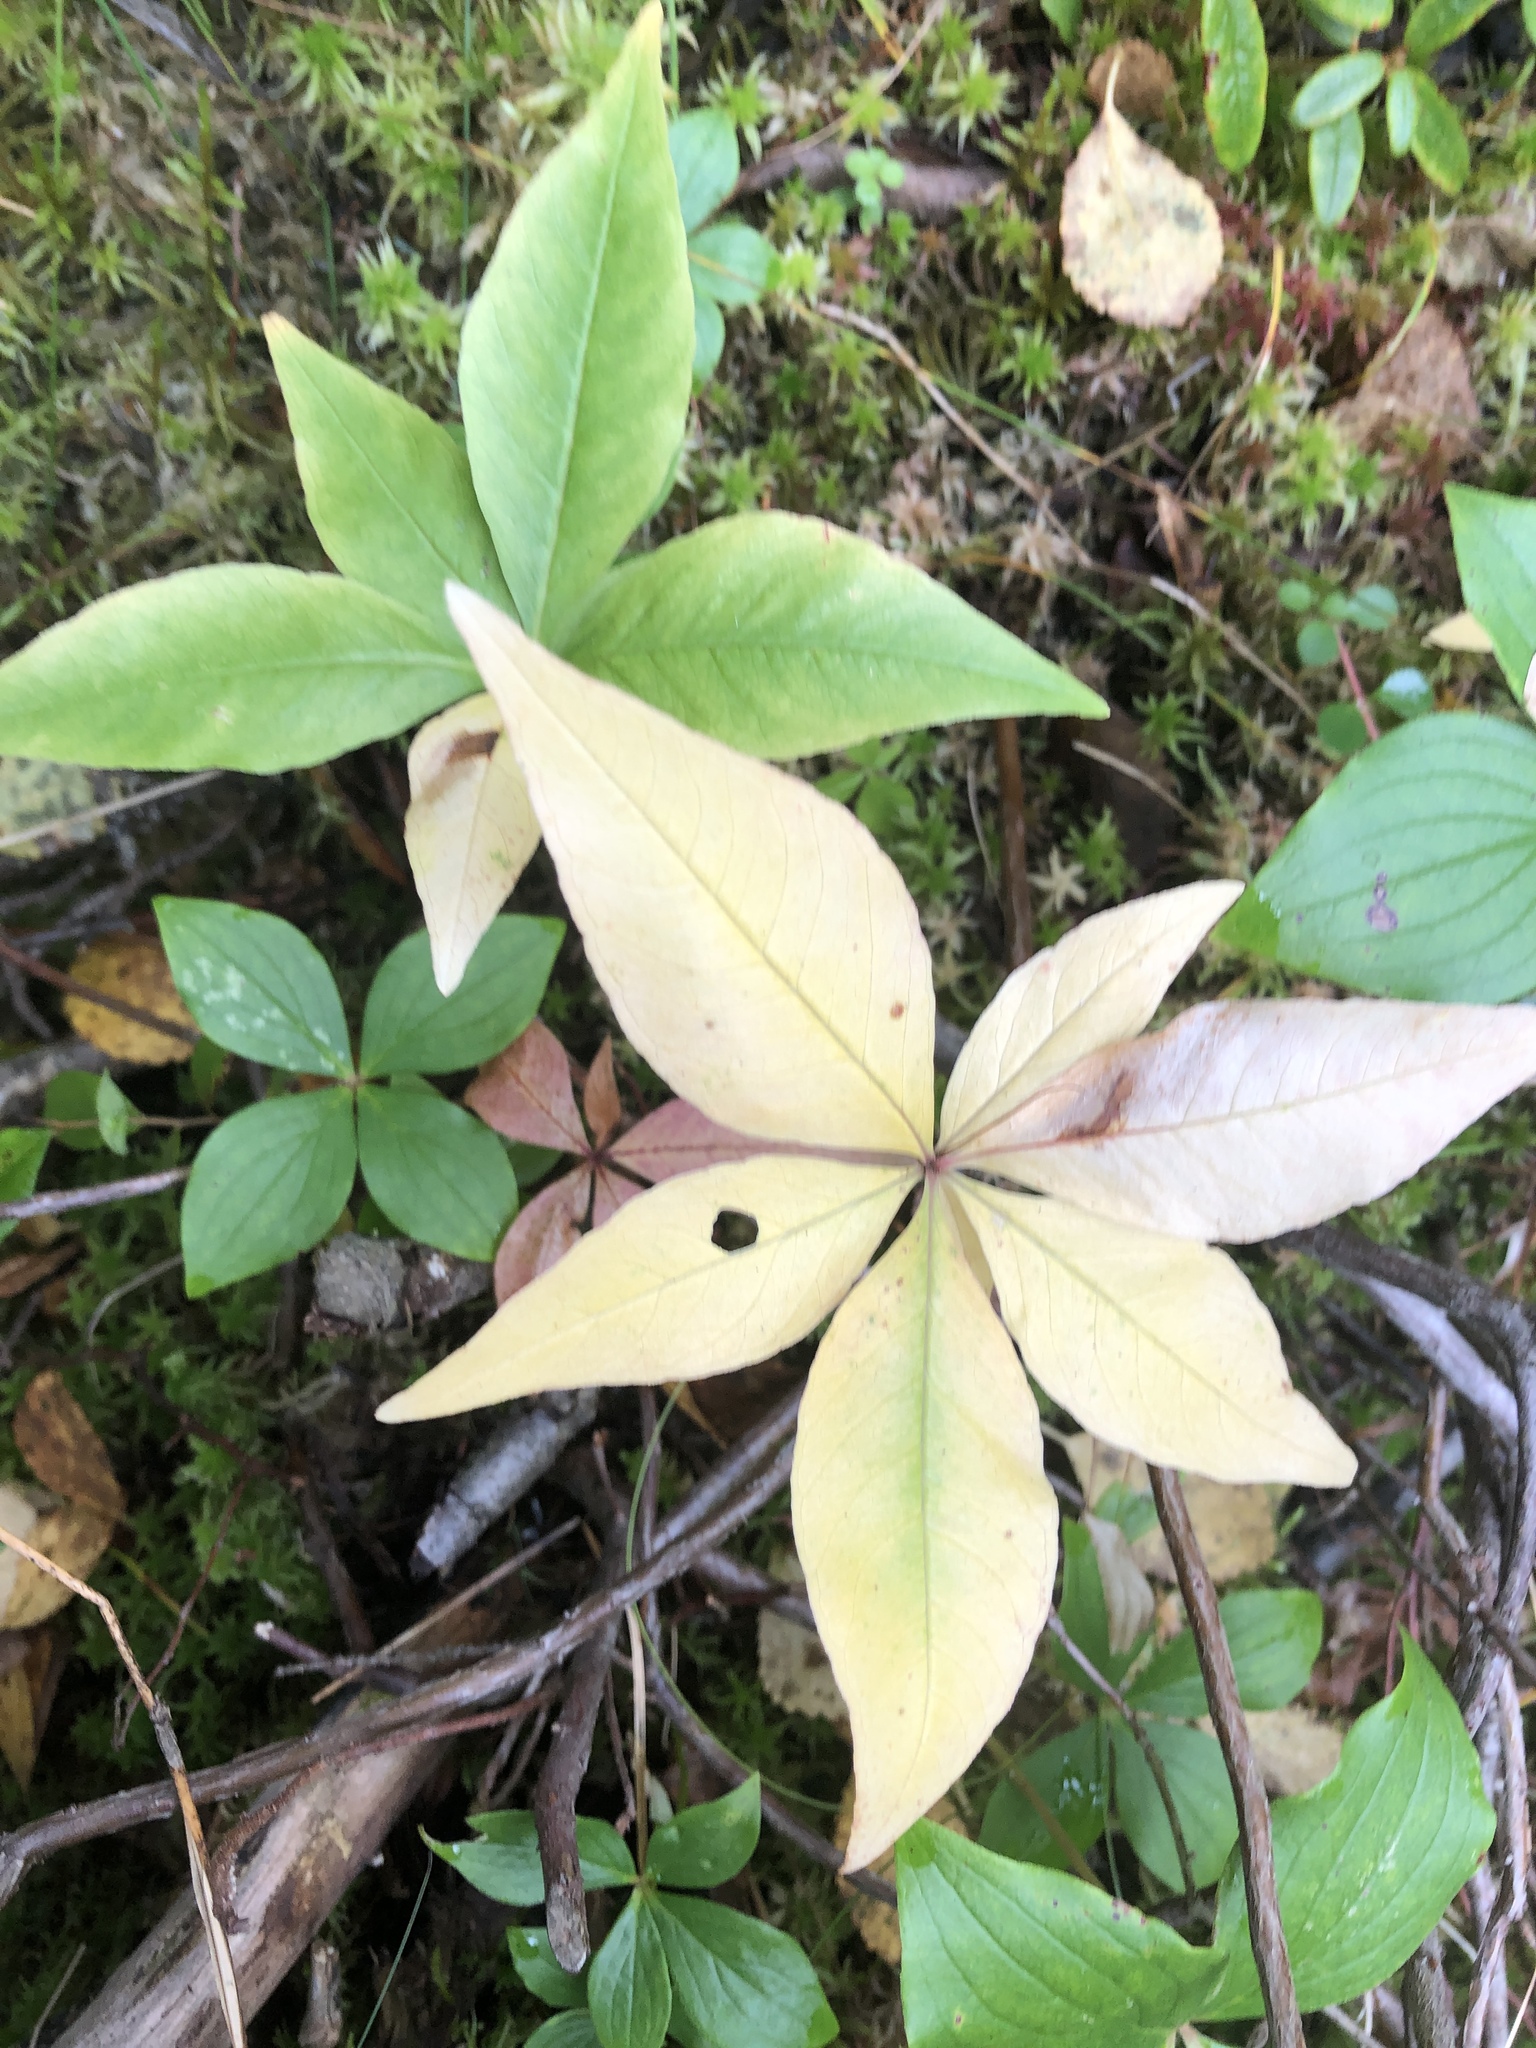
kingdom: Plantae
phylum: Tracheophyta
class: Magnoliopsida
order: Ericales
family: Primulaceae
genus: Lysimachia
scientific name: Lysimachia borealis
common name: American starflower
